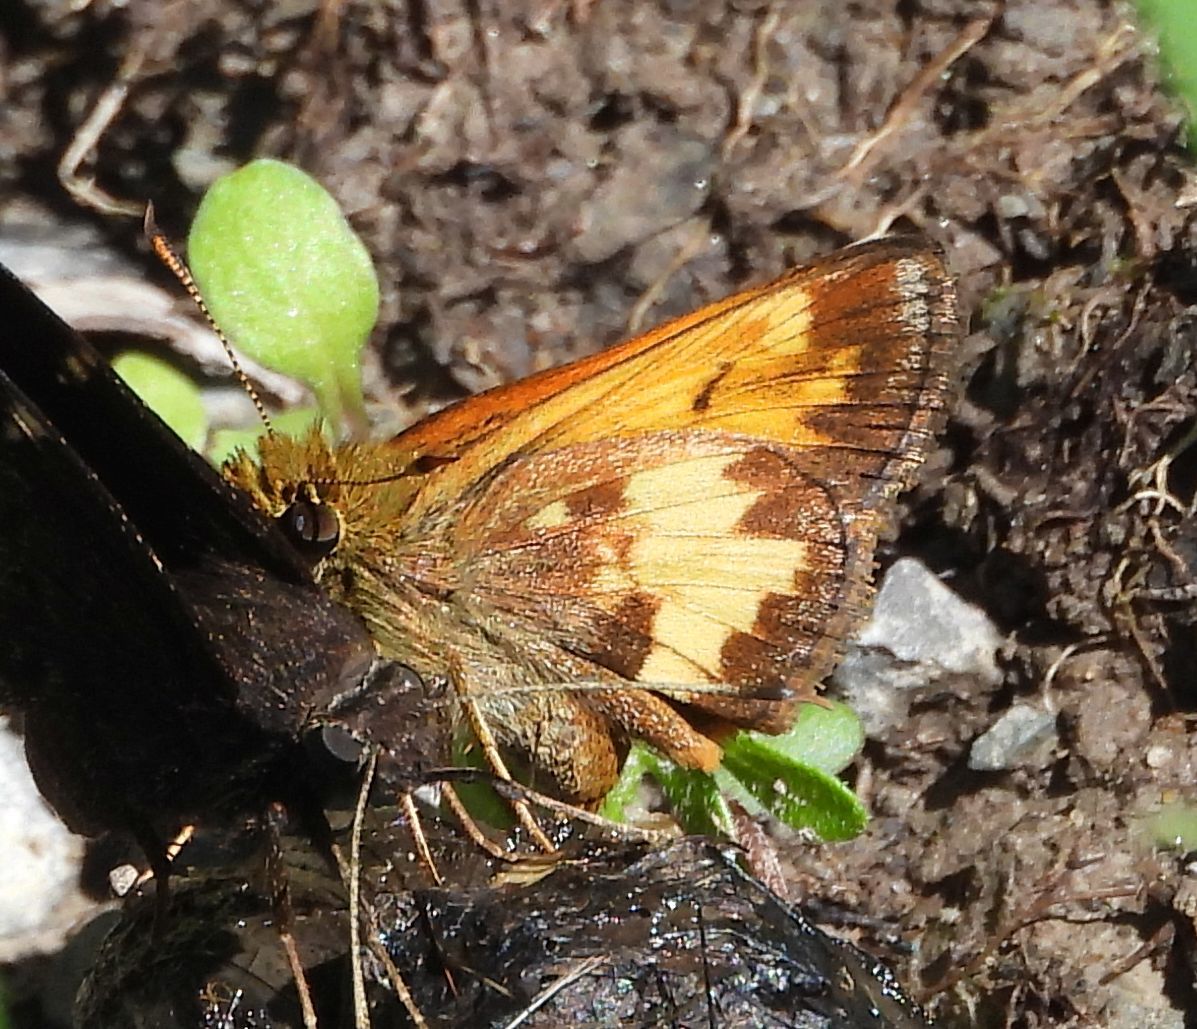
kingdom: Animalia
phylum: Arthropoda
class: Insecta
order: Lepidoptera
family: Hesperiidae
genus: Lon
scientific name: Lon hobomok
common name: Hobomok skipper
